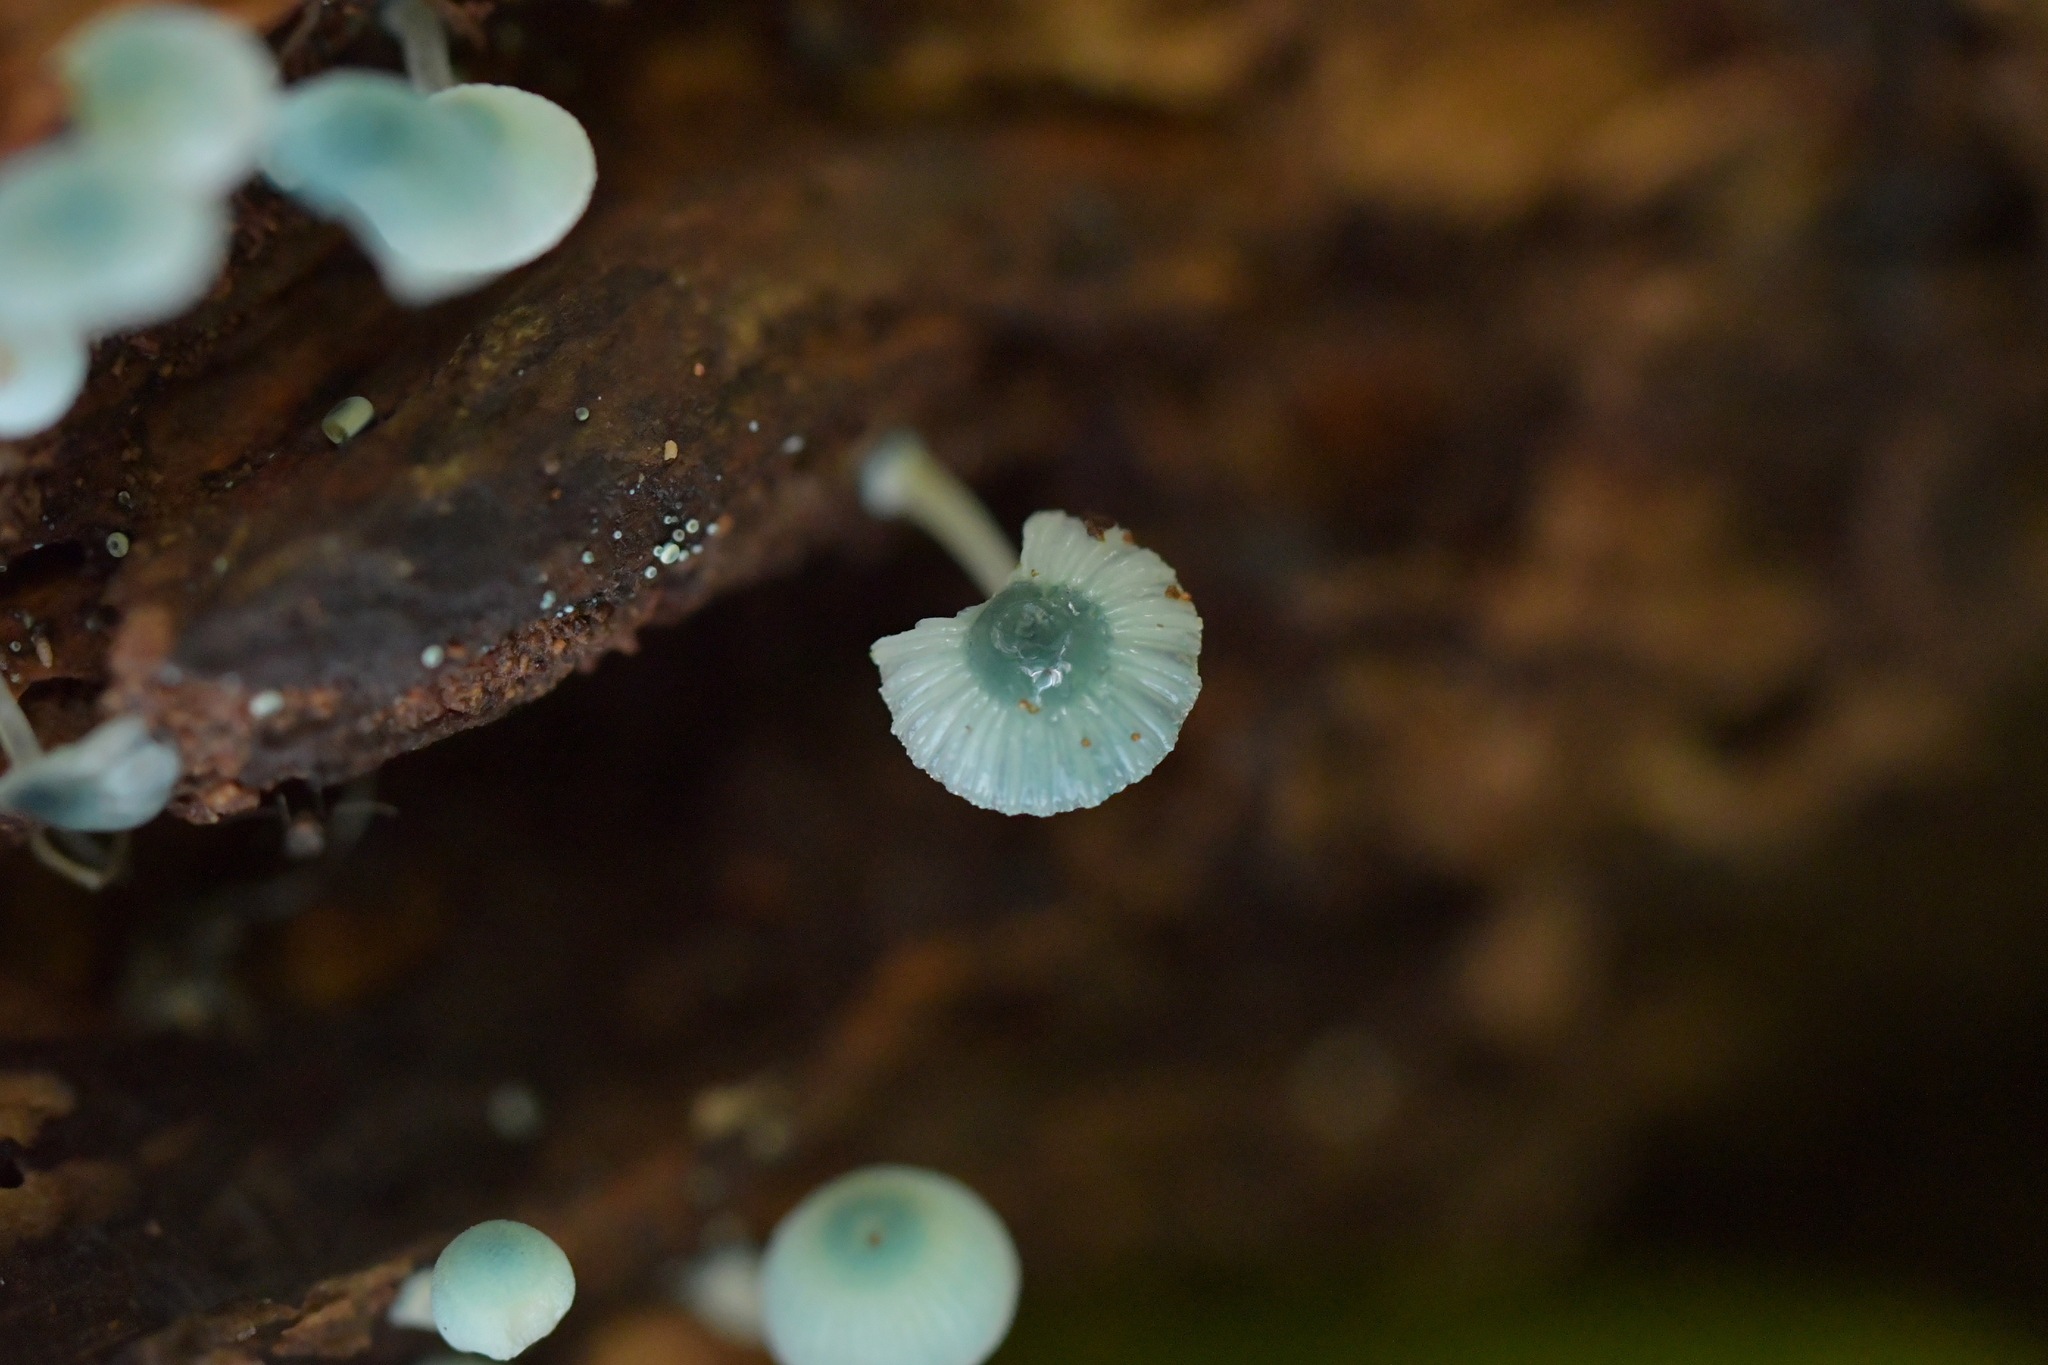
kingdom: Fungi
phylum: Basidiomycota
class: Agaricomycetes
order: Agaricales
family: Mycenaceae
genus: Mycena
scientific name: Mycena interrupta
